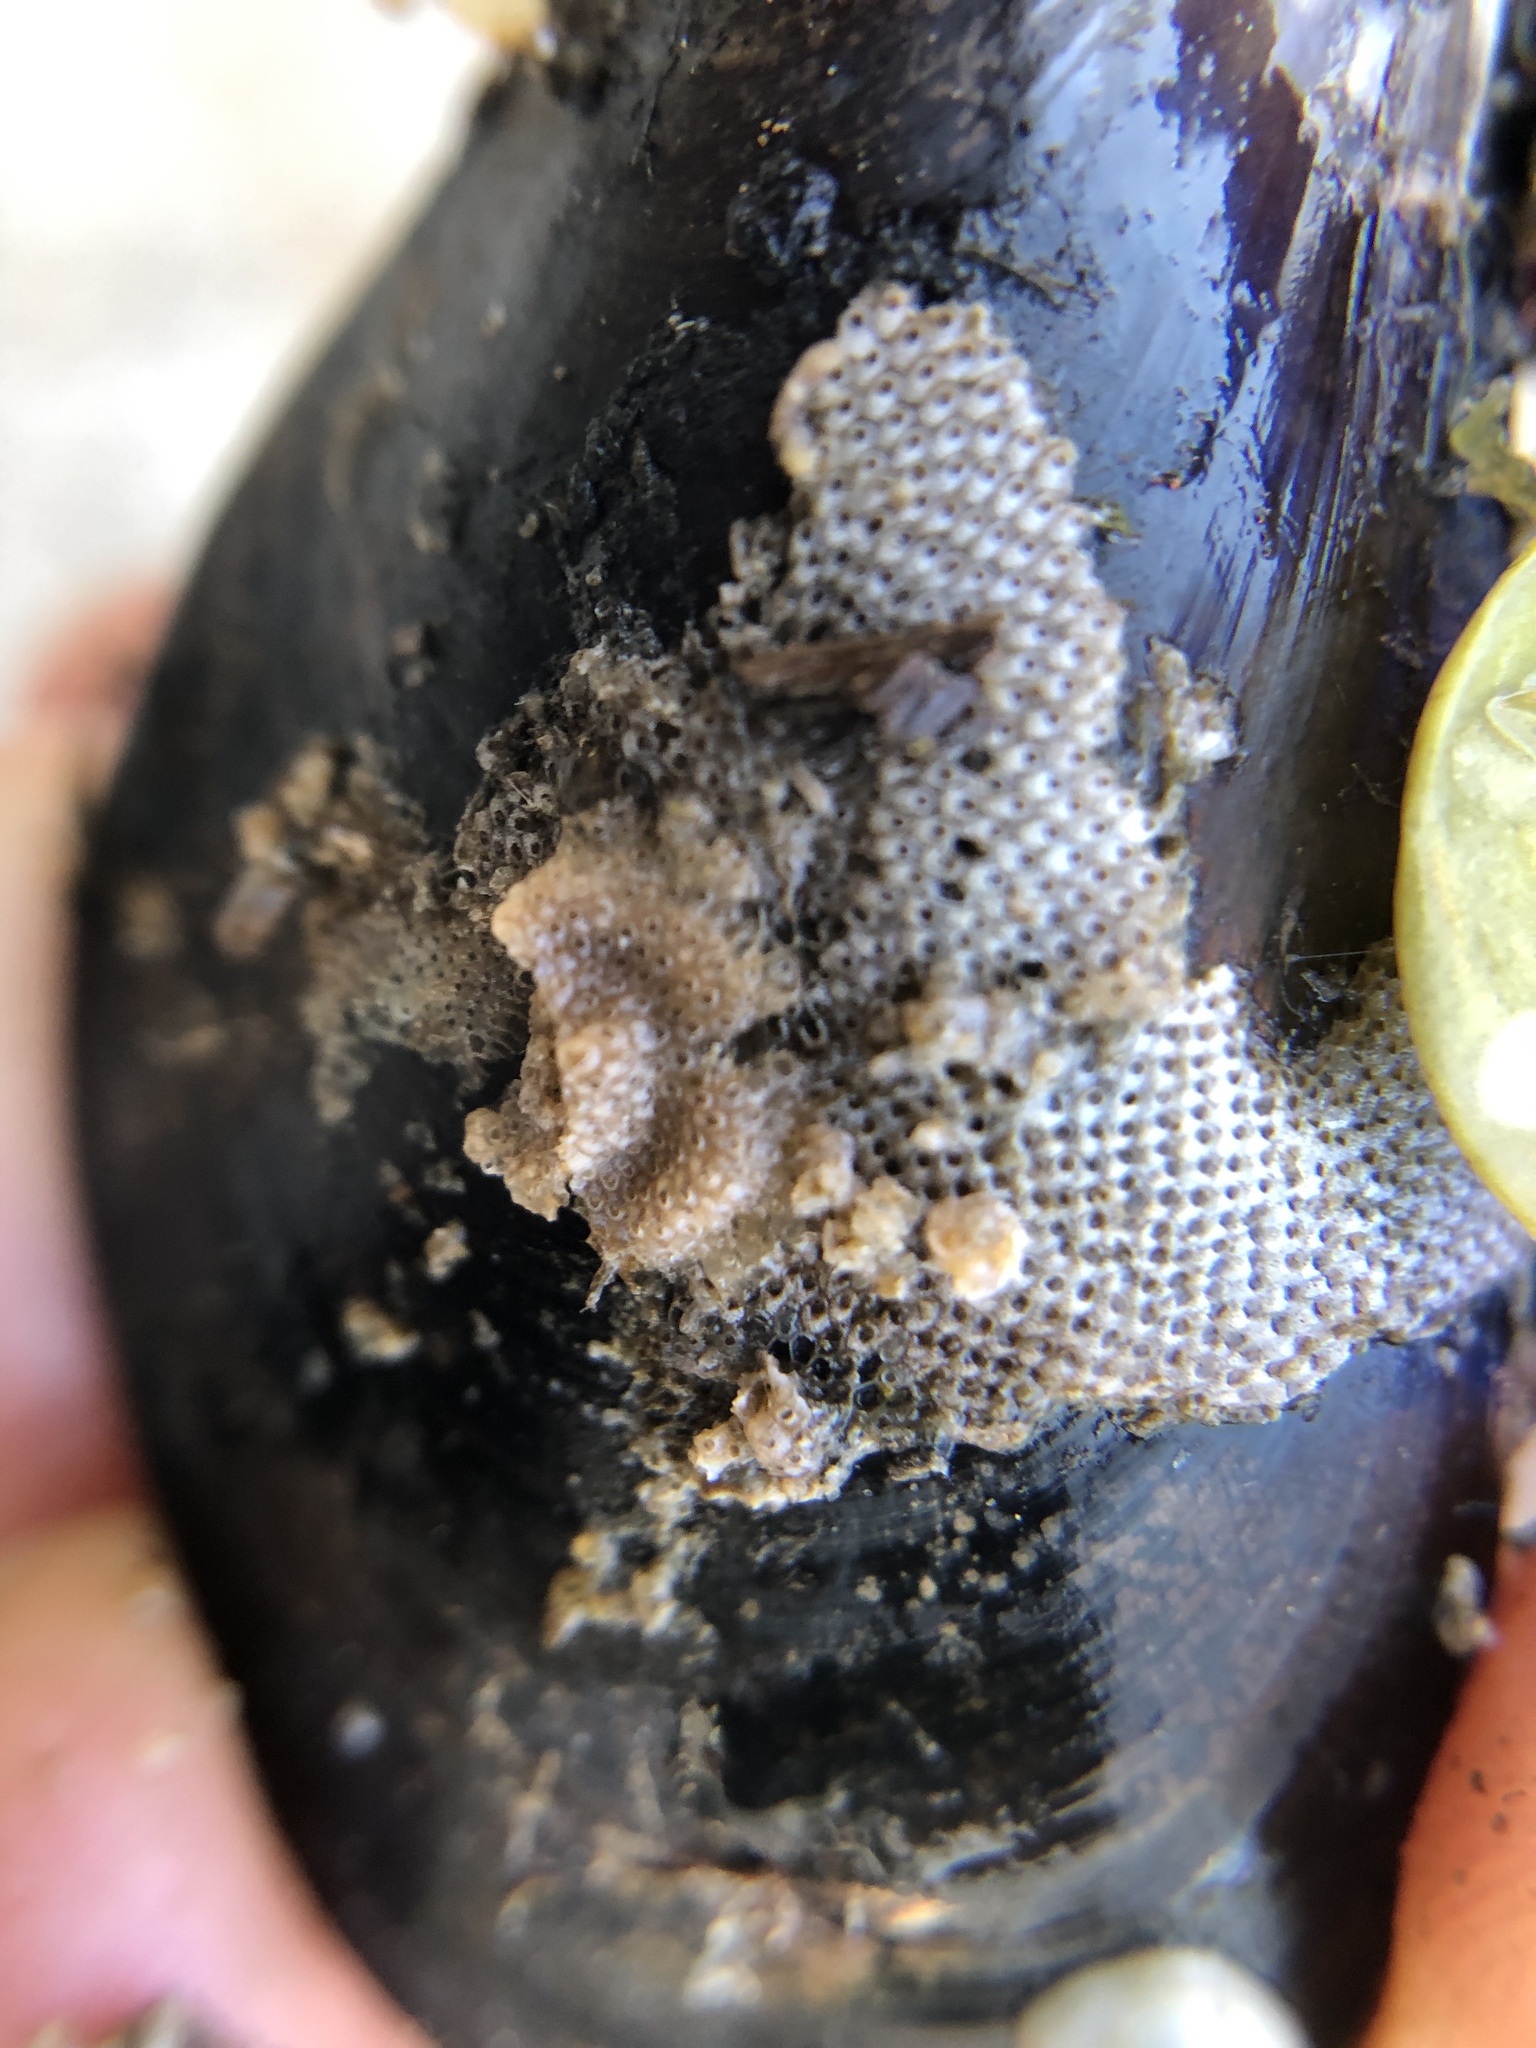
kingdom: Animalia
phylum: Bryozoa
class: Gymnolaemata
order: Cheilostomatida
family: Cryptosulidae
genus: Cryptosula
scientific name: Cryptosula pallasiana
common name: Red crust
